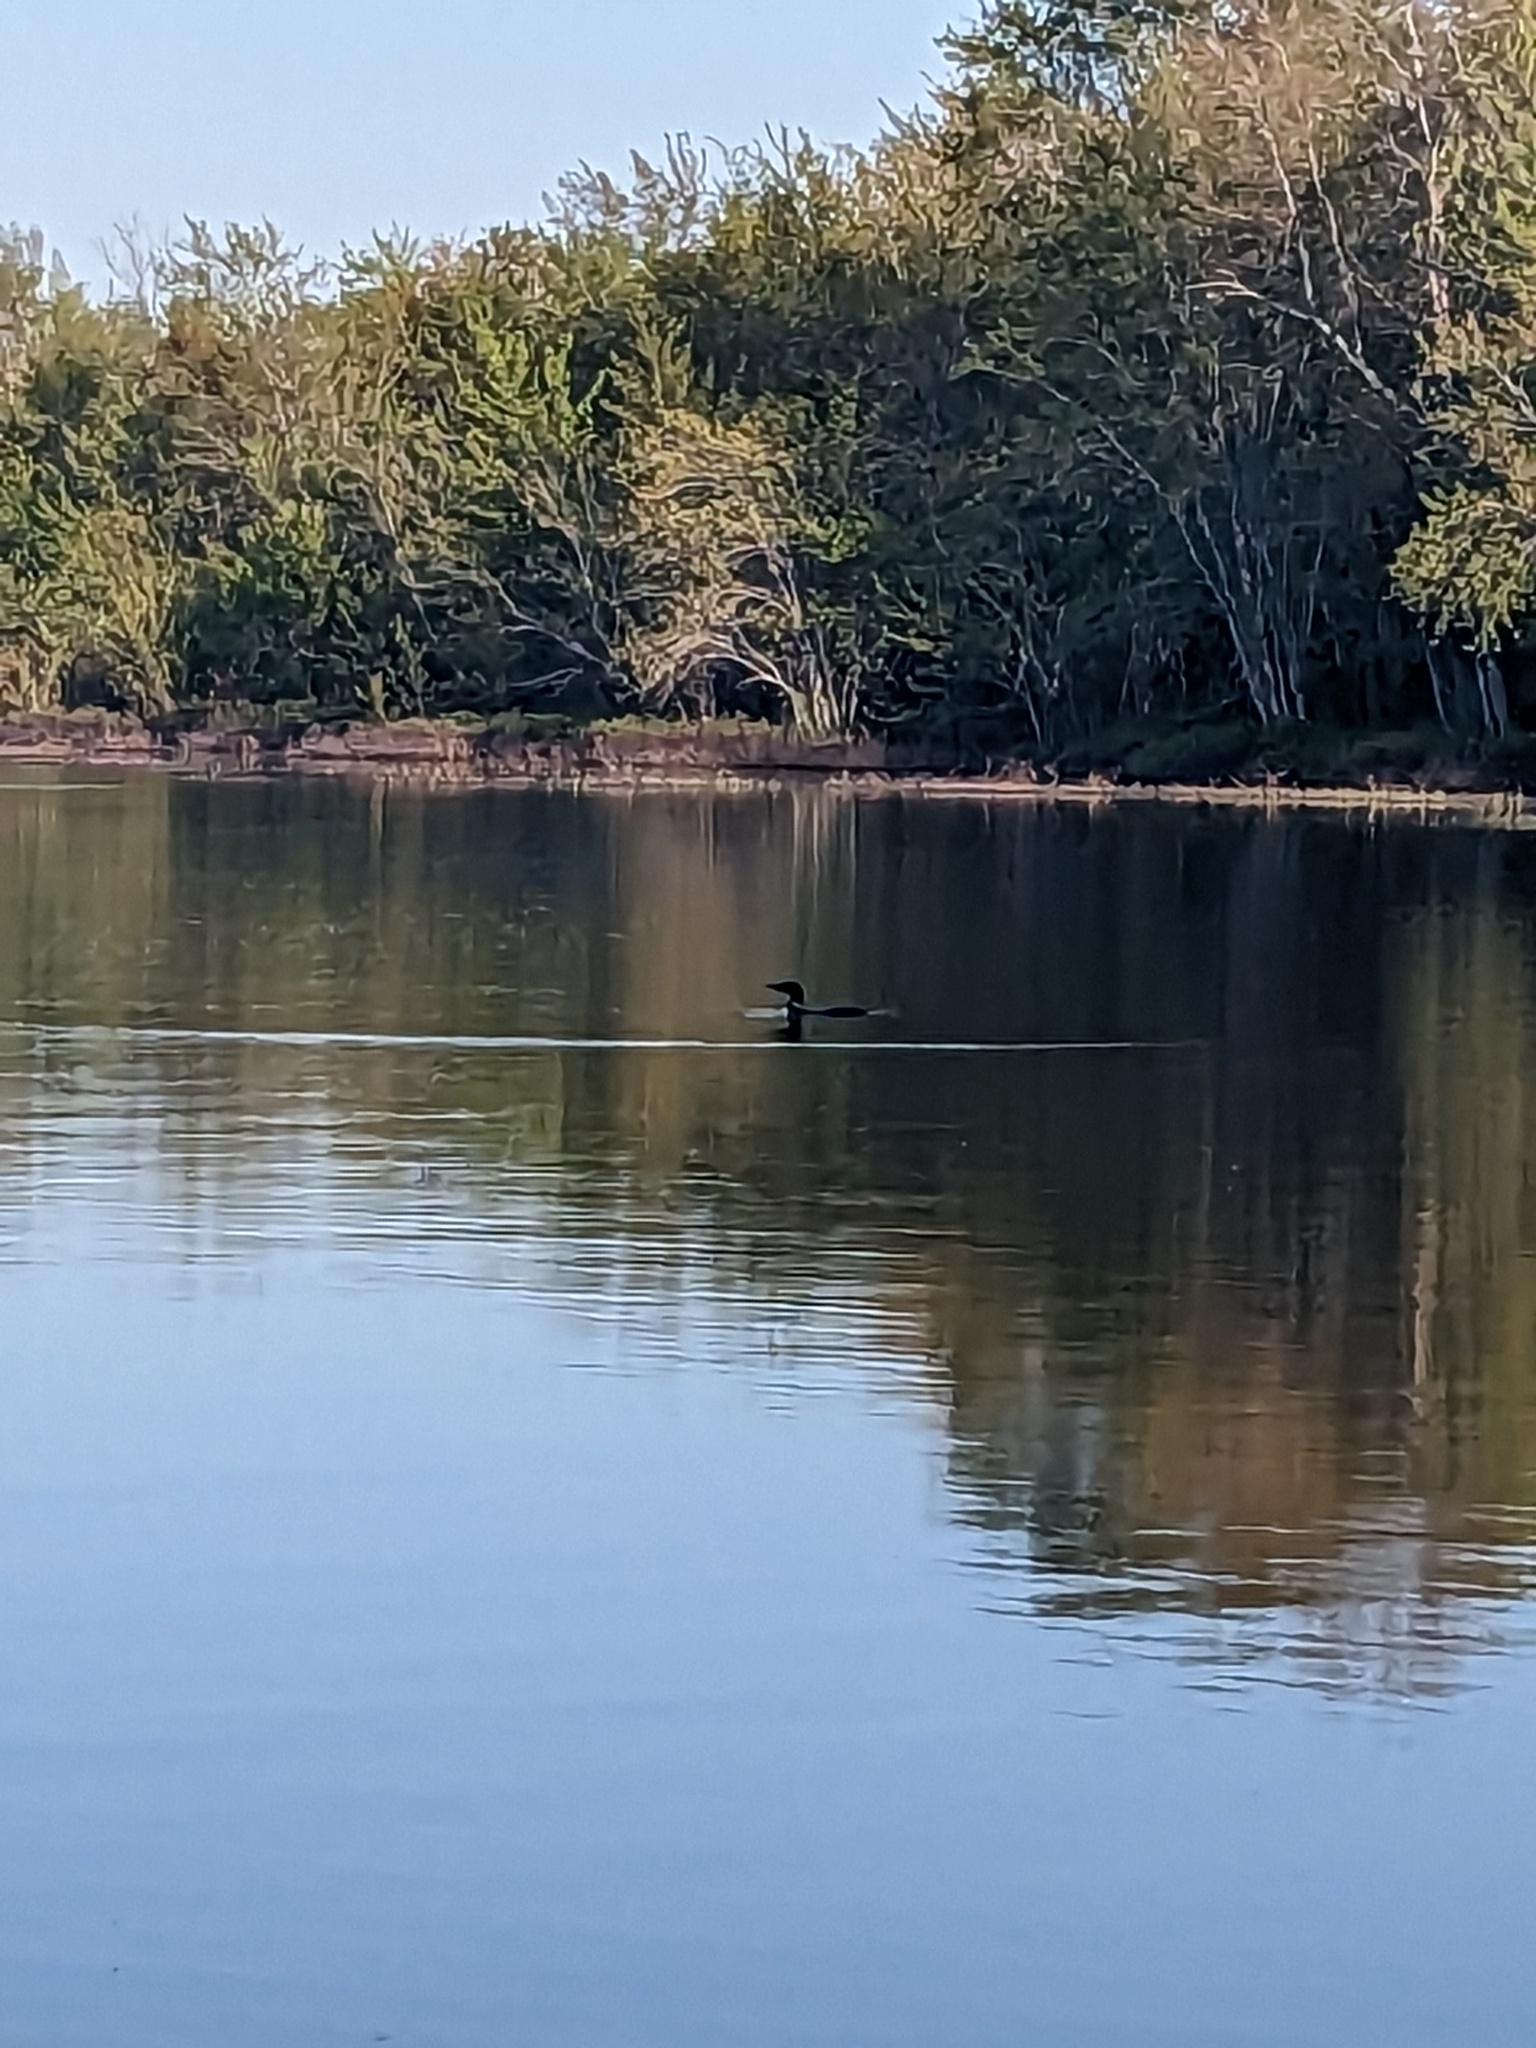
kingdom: Animalia
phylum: Chordata
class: Aves
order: Gaviiformes
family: Gaviidae
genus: Gavia
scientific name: Gavia immer
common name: Common loon
